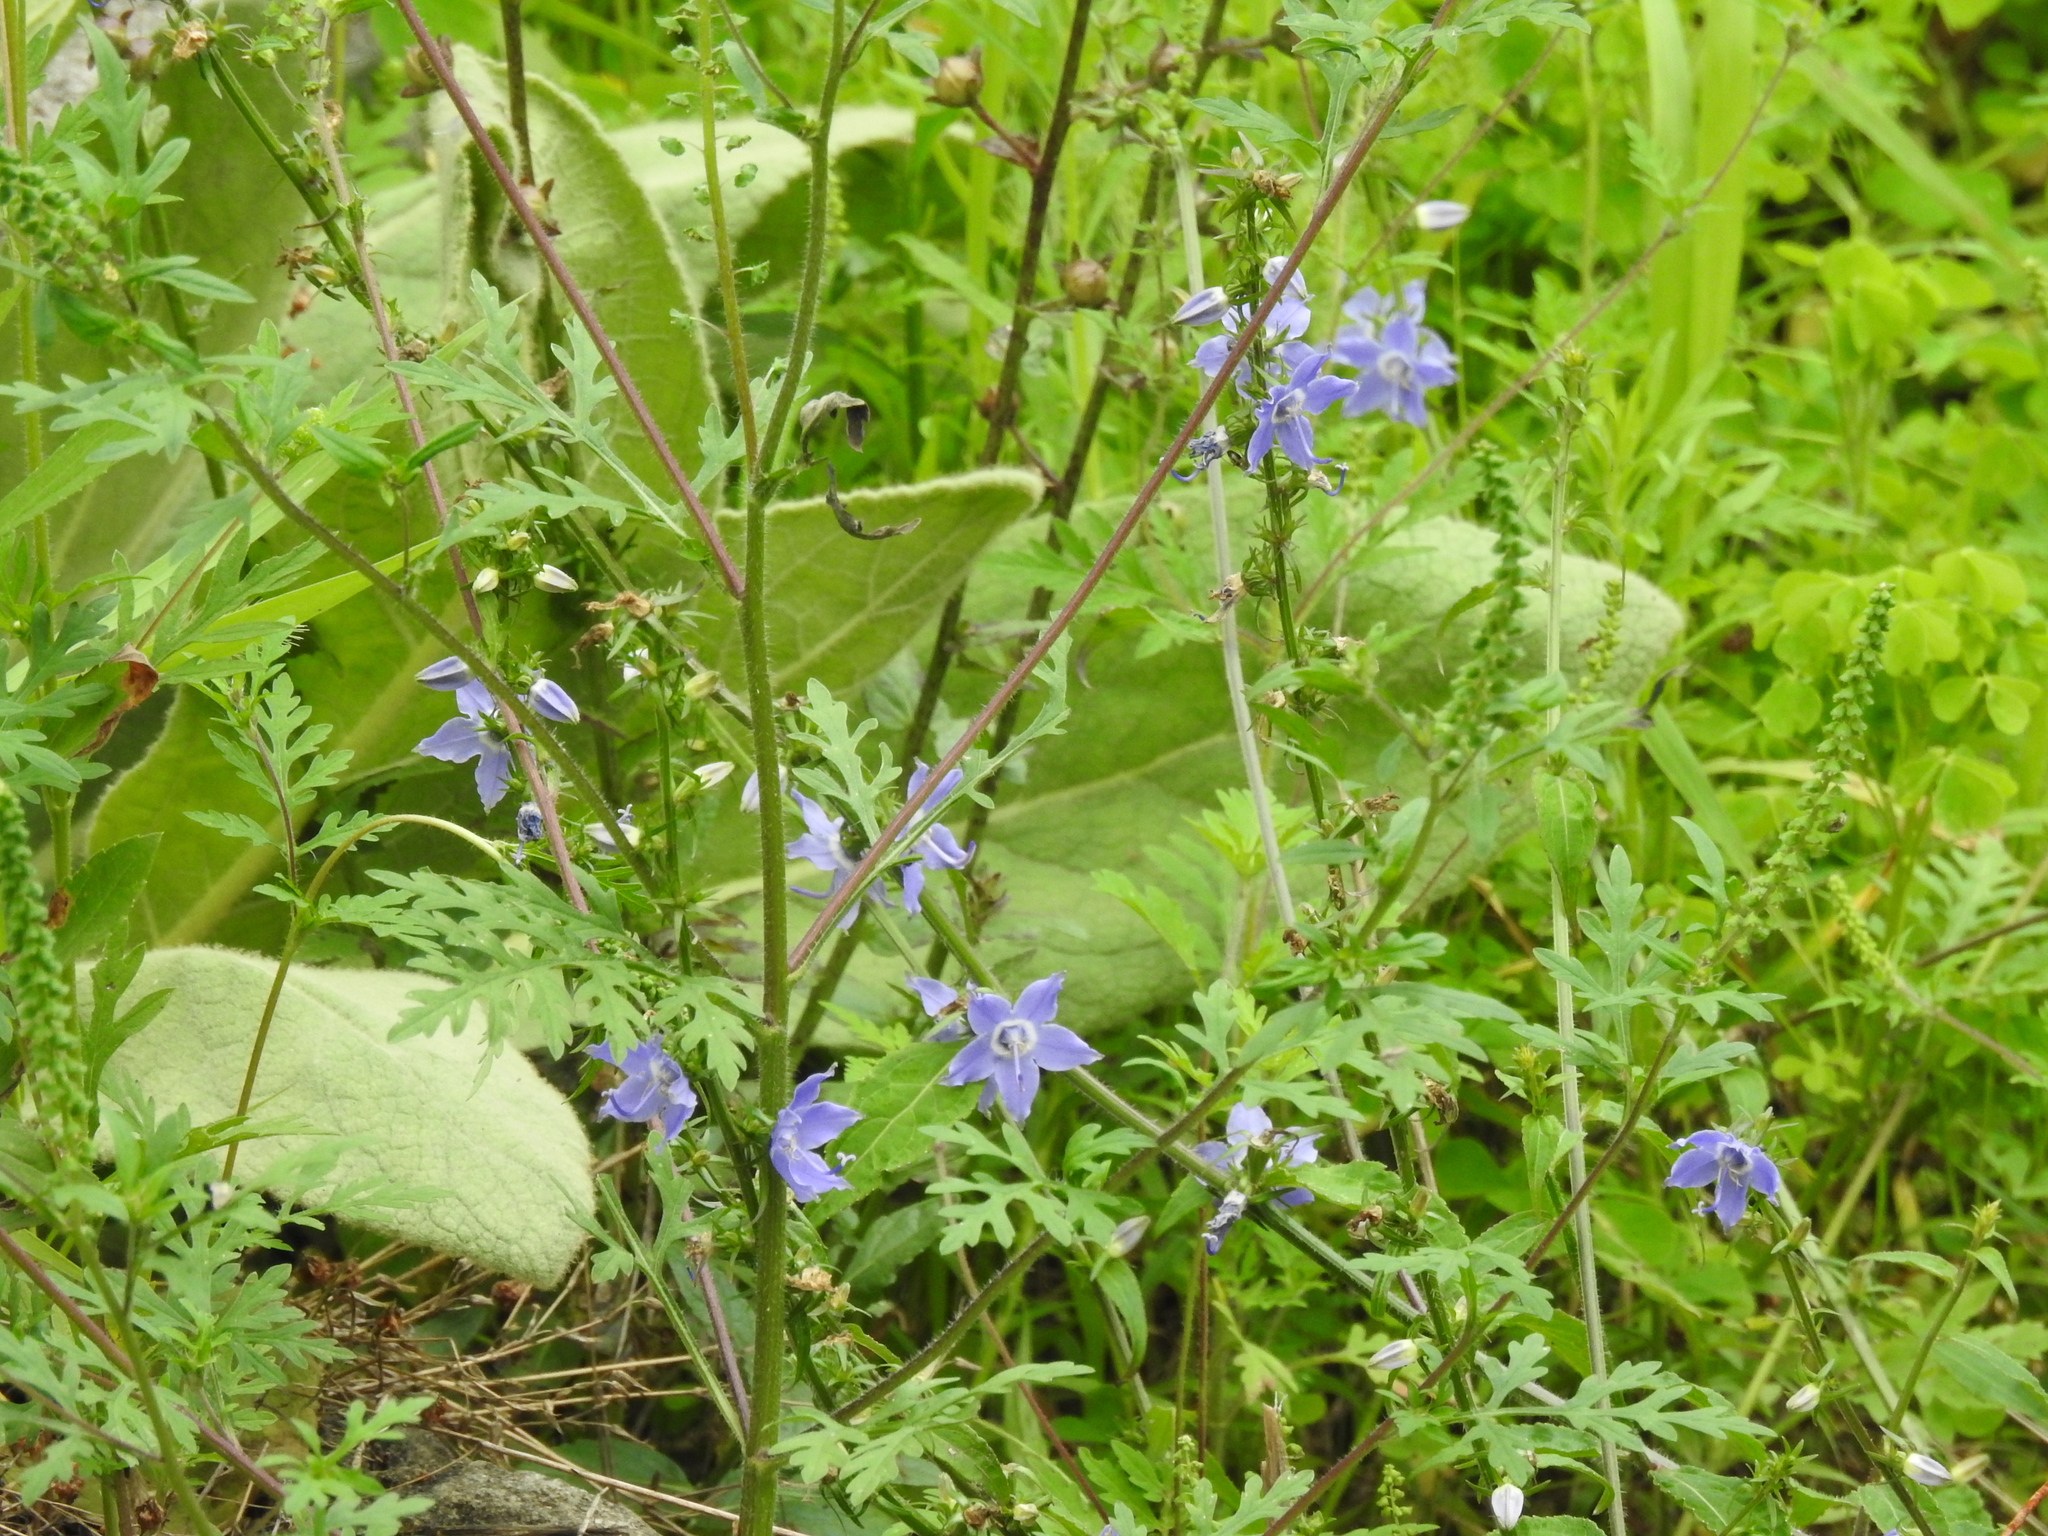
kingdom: Plantae
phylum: Tracheophyta
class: Magnoliopsida
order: Asterales
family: Campanulaceae
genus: Campanulastrum
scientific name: Campanulastrum americanum
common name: American bellflower
